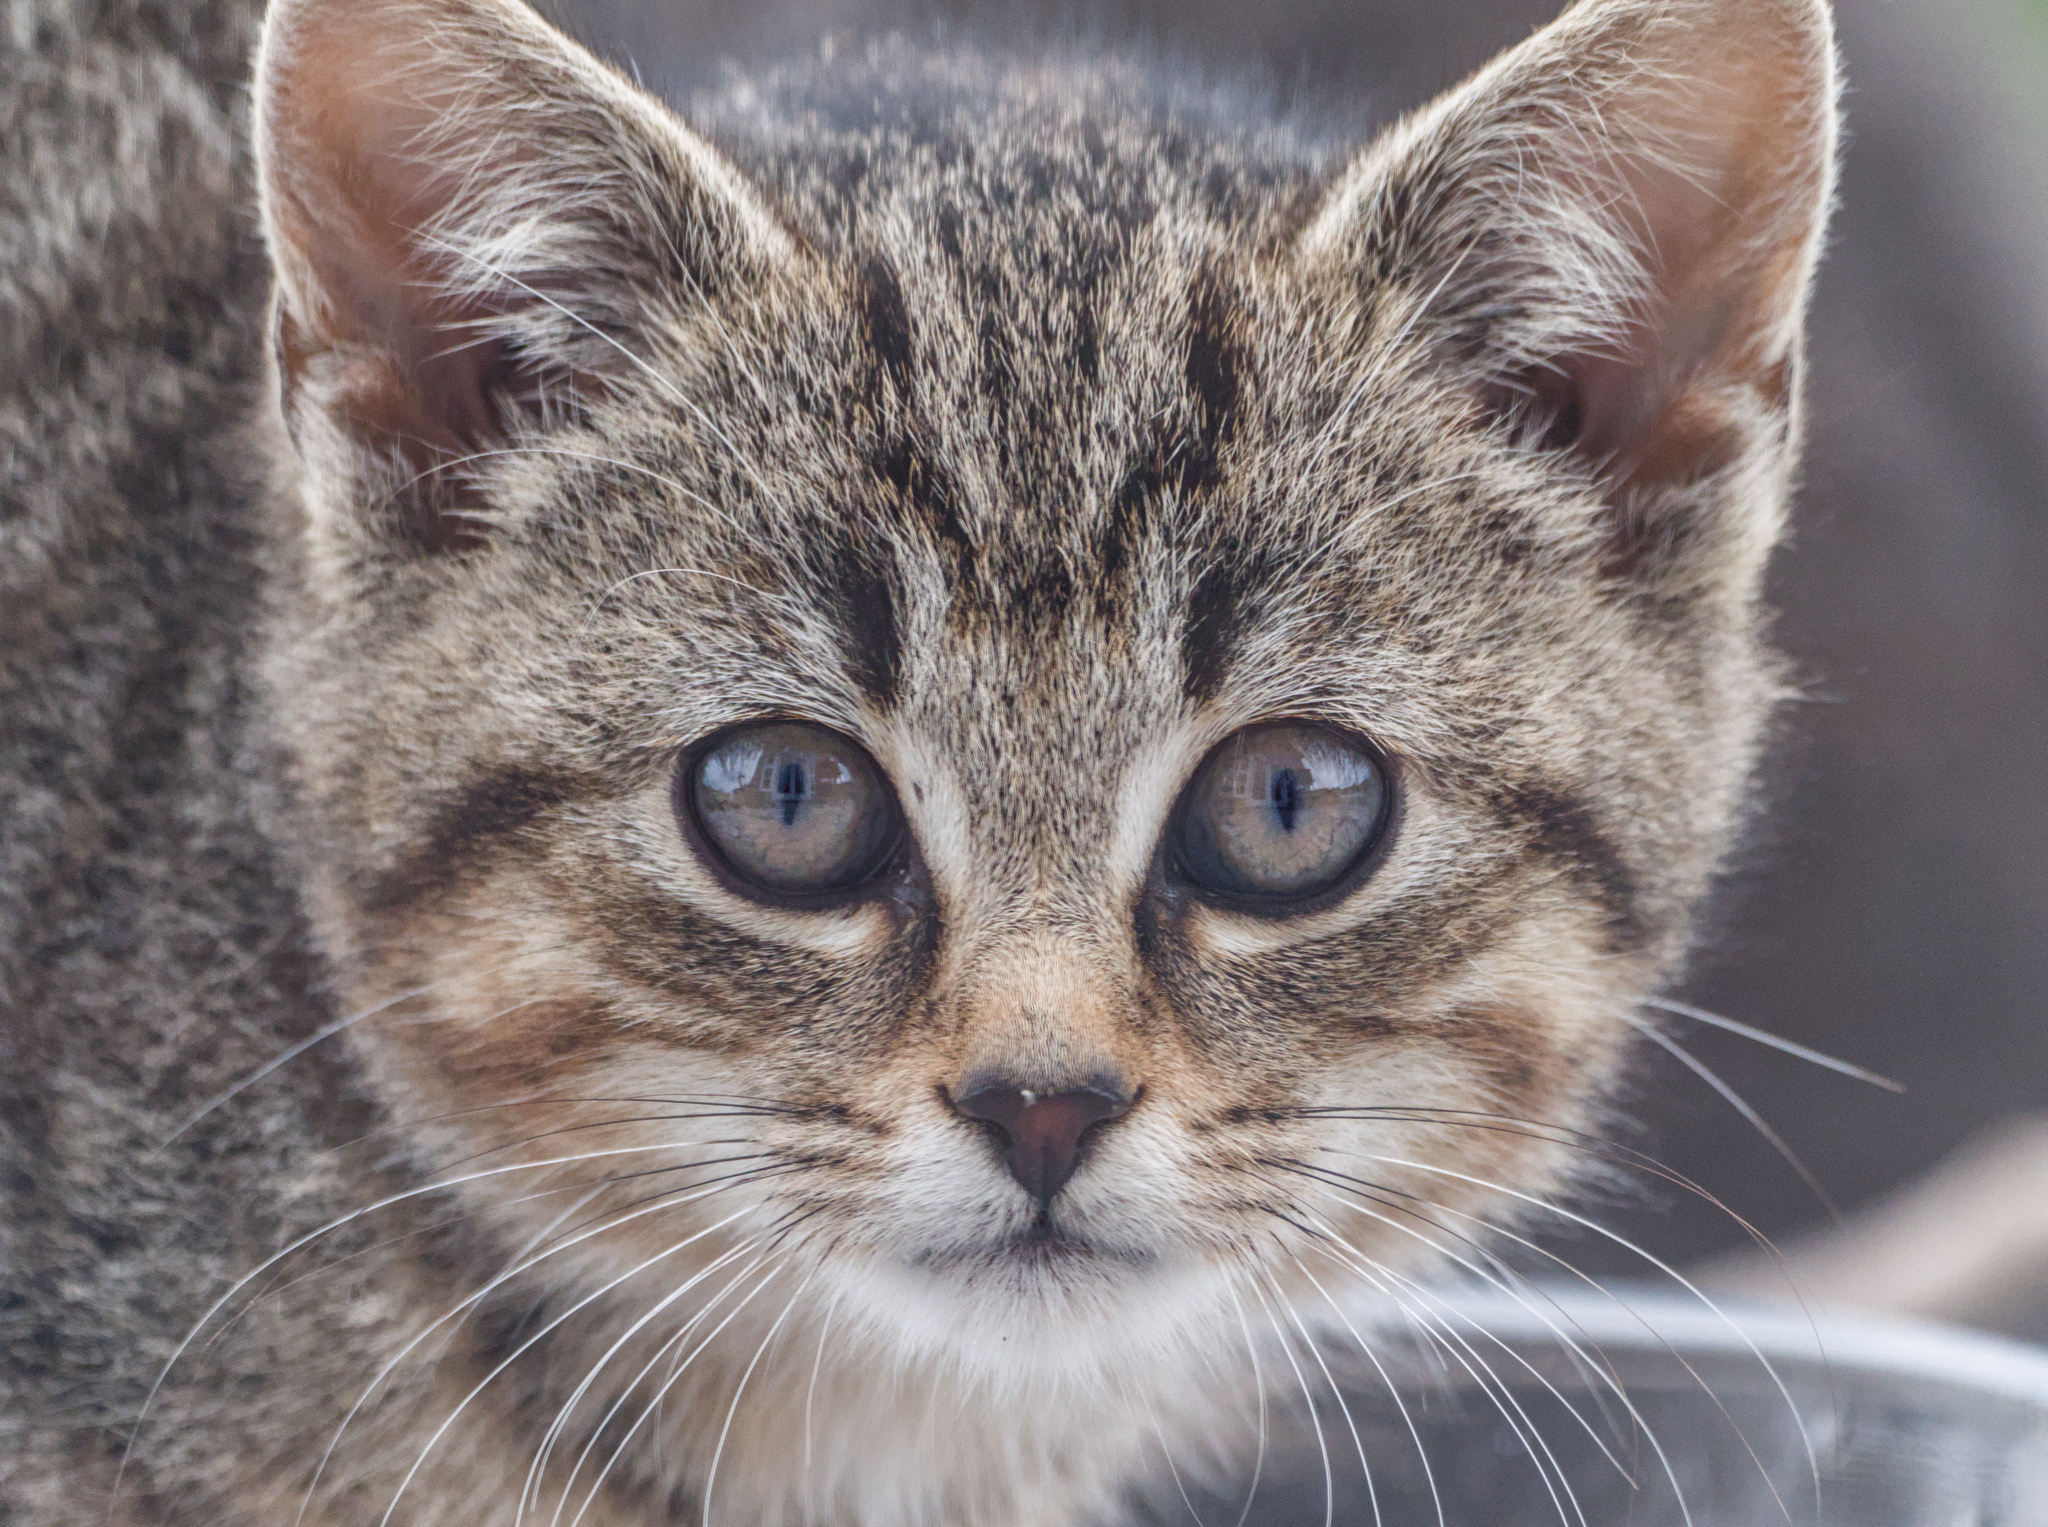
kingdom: Animalia
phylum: Chordata
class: Mammalia
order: Carnivora
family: Felidae
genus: Felis
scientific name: Felis catus
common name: Domestic cat
